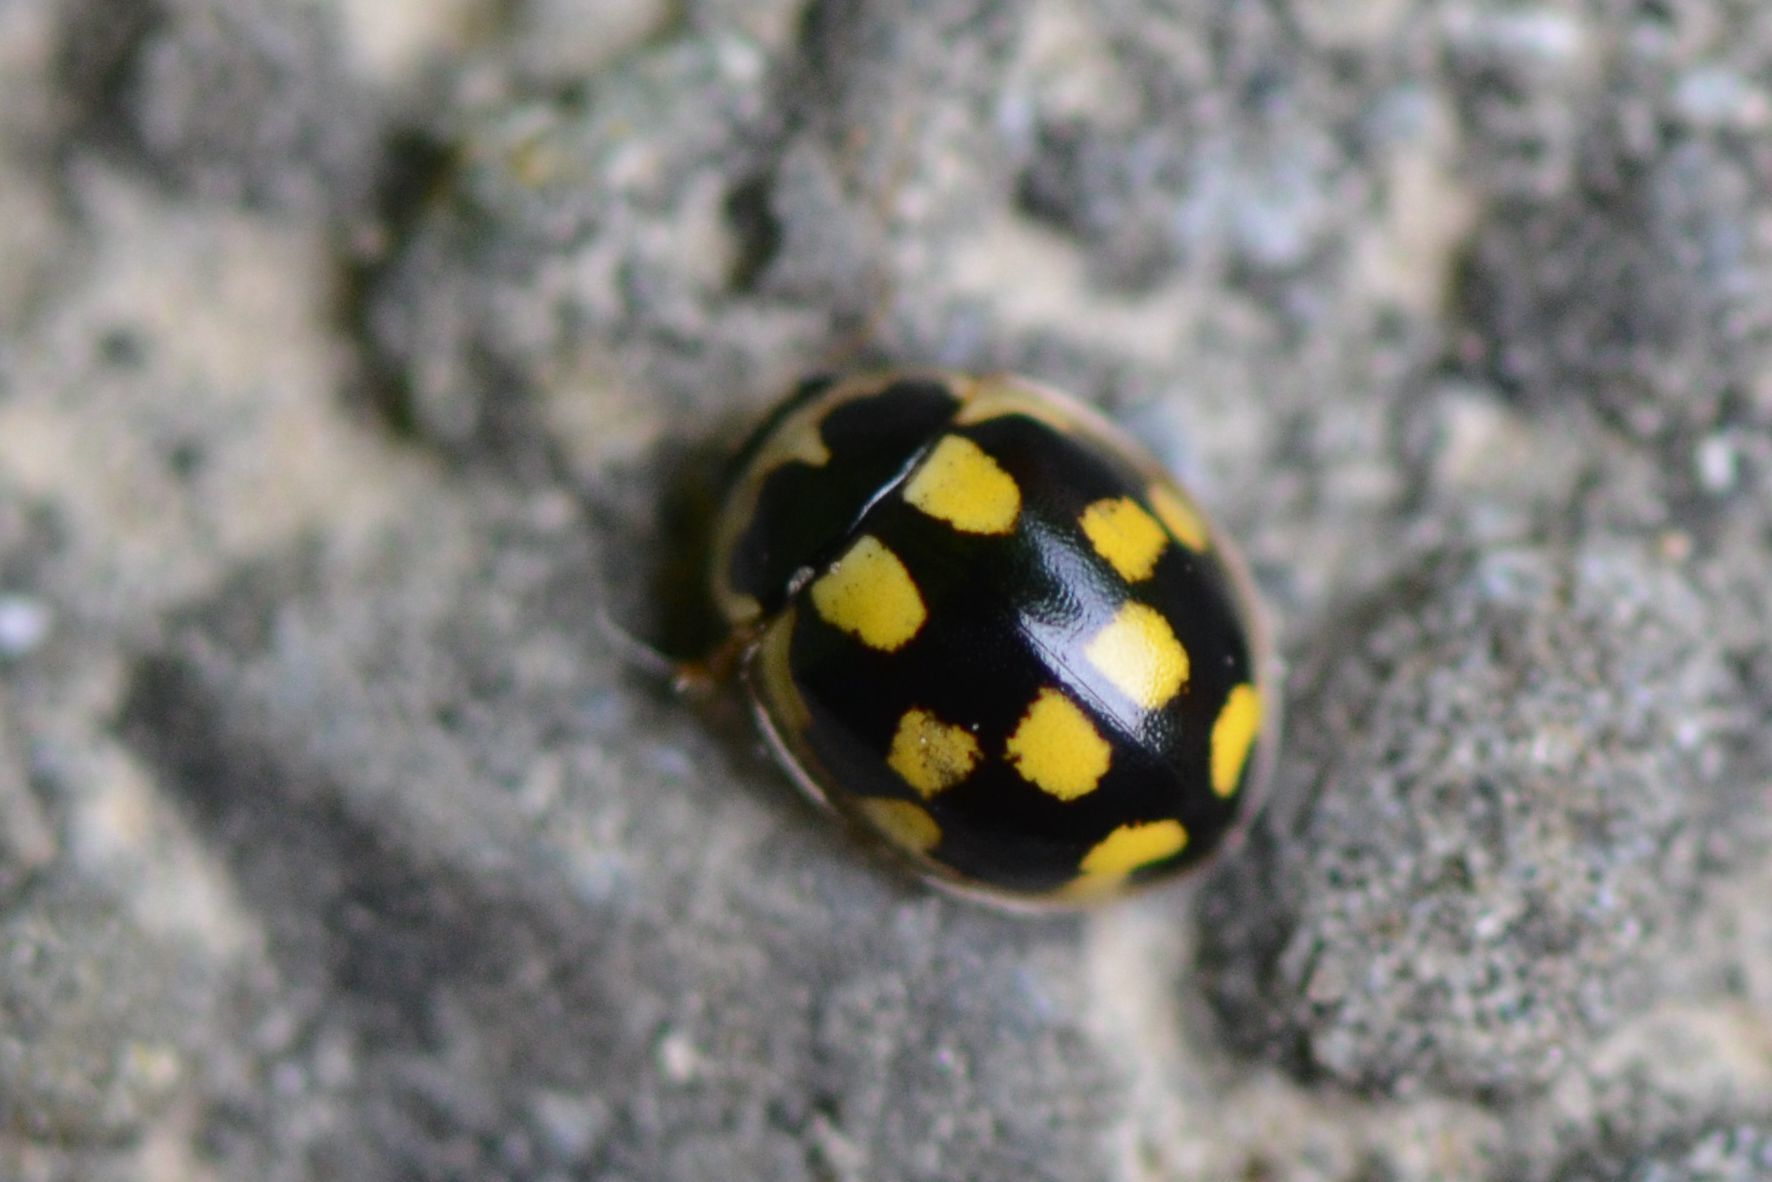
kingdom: Animalia
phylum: Arthropoda
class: Insecta
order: Coleoptera
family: Coccinellidae
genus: Propylaea
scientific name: Propylaea quatuordecimpunctata
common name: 14-spotted ladybird beetle
